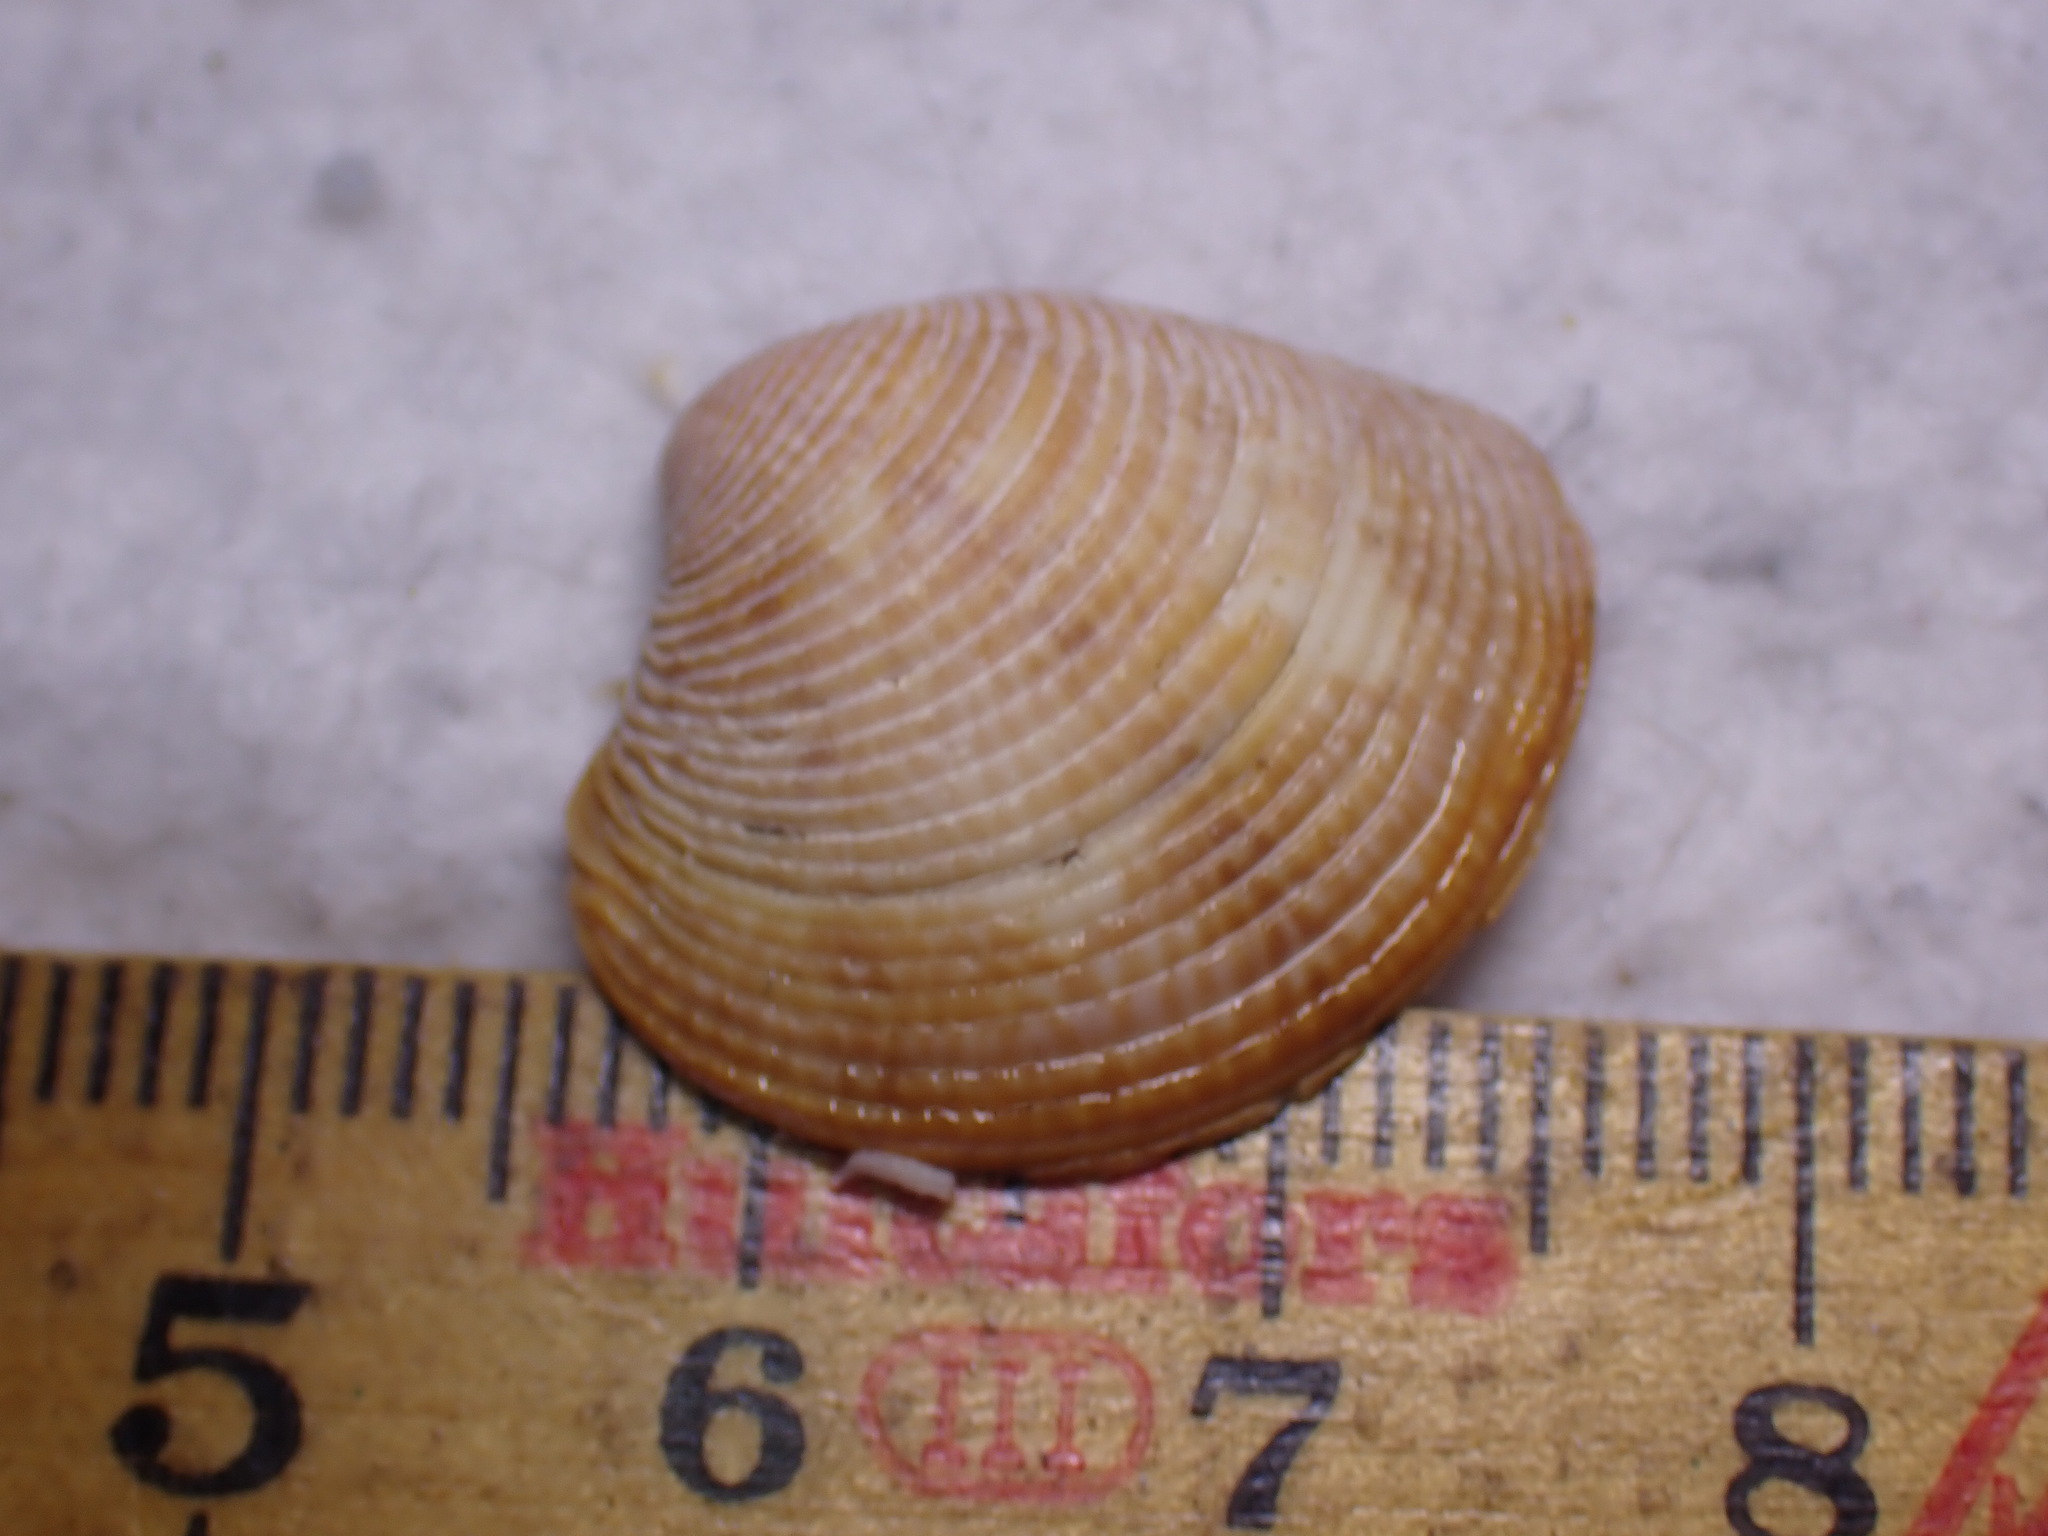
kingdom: Animalia
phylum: Mollusca
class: Bivalvia
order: Venerida
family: Veneridae
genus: Chamelea
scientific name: Chamelea striatula
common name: Striped venus
